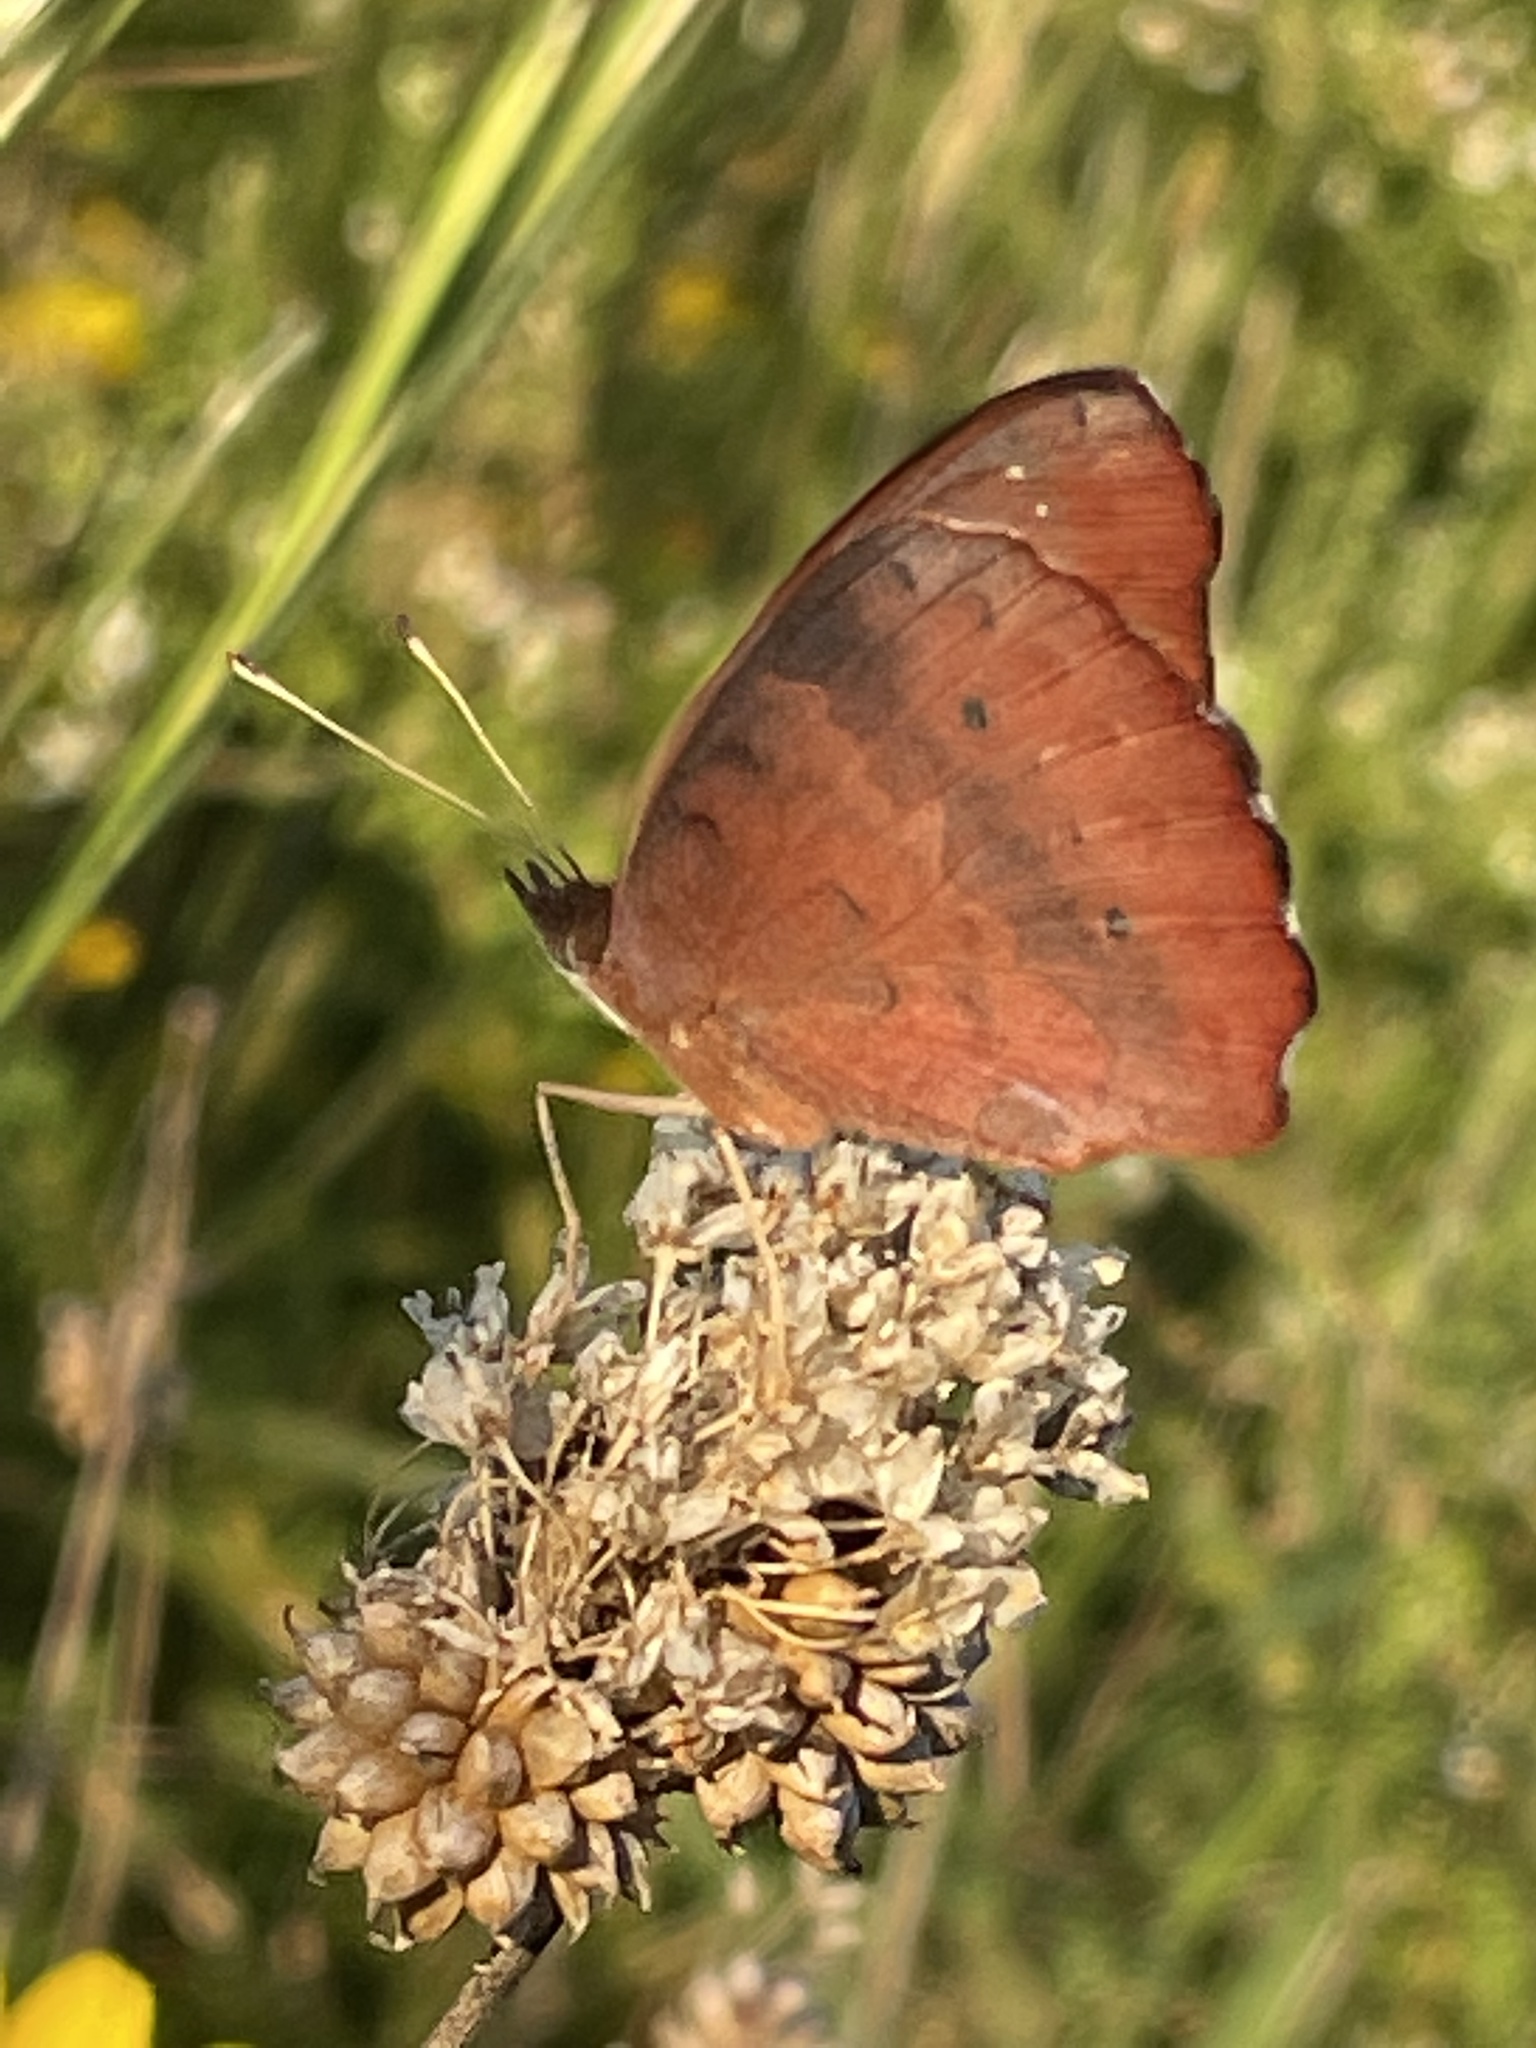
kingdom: Animalia
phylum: Arthropoda
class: Insecta
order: Lepidoptera
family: Nymphalidae
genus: Junonia
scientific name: Junonia coenia
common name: Common buckeye
